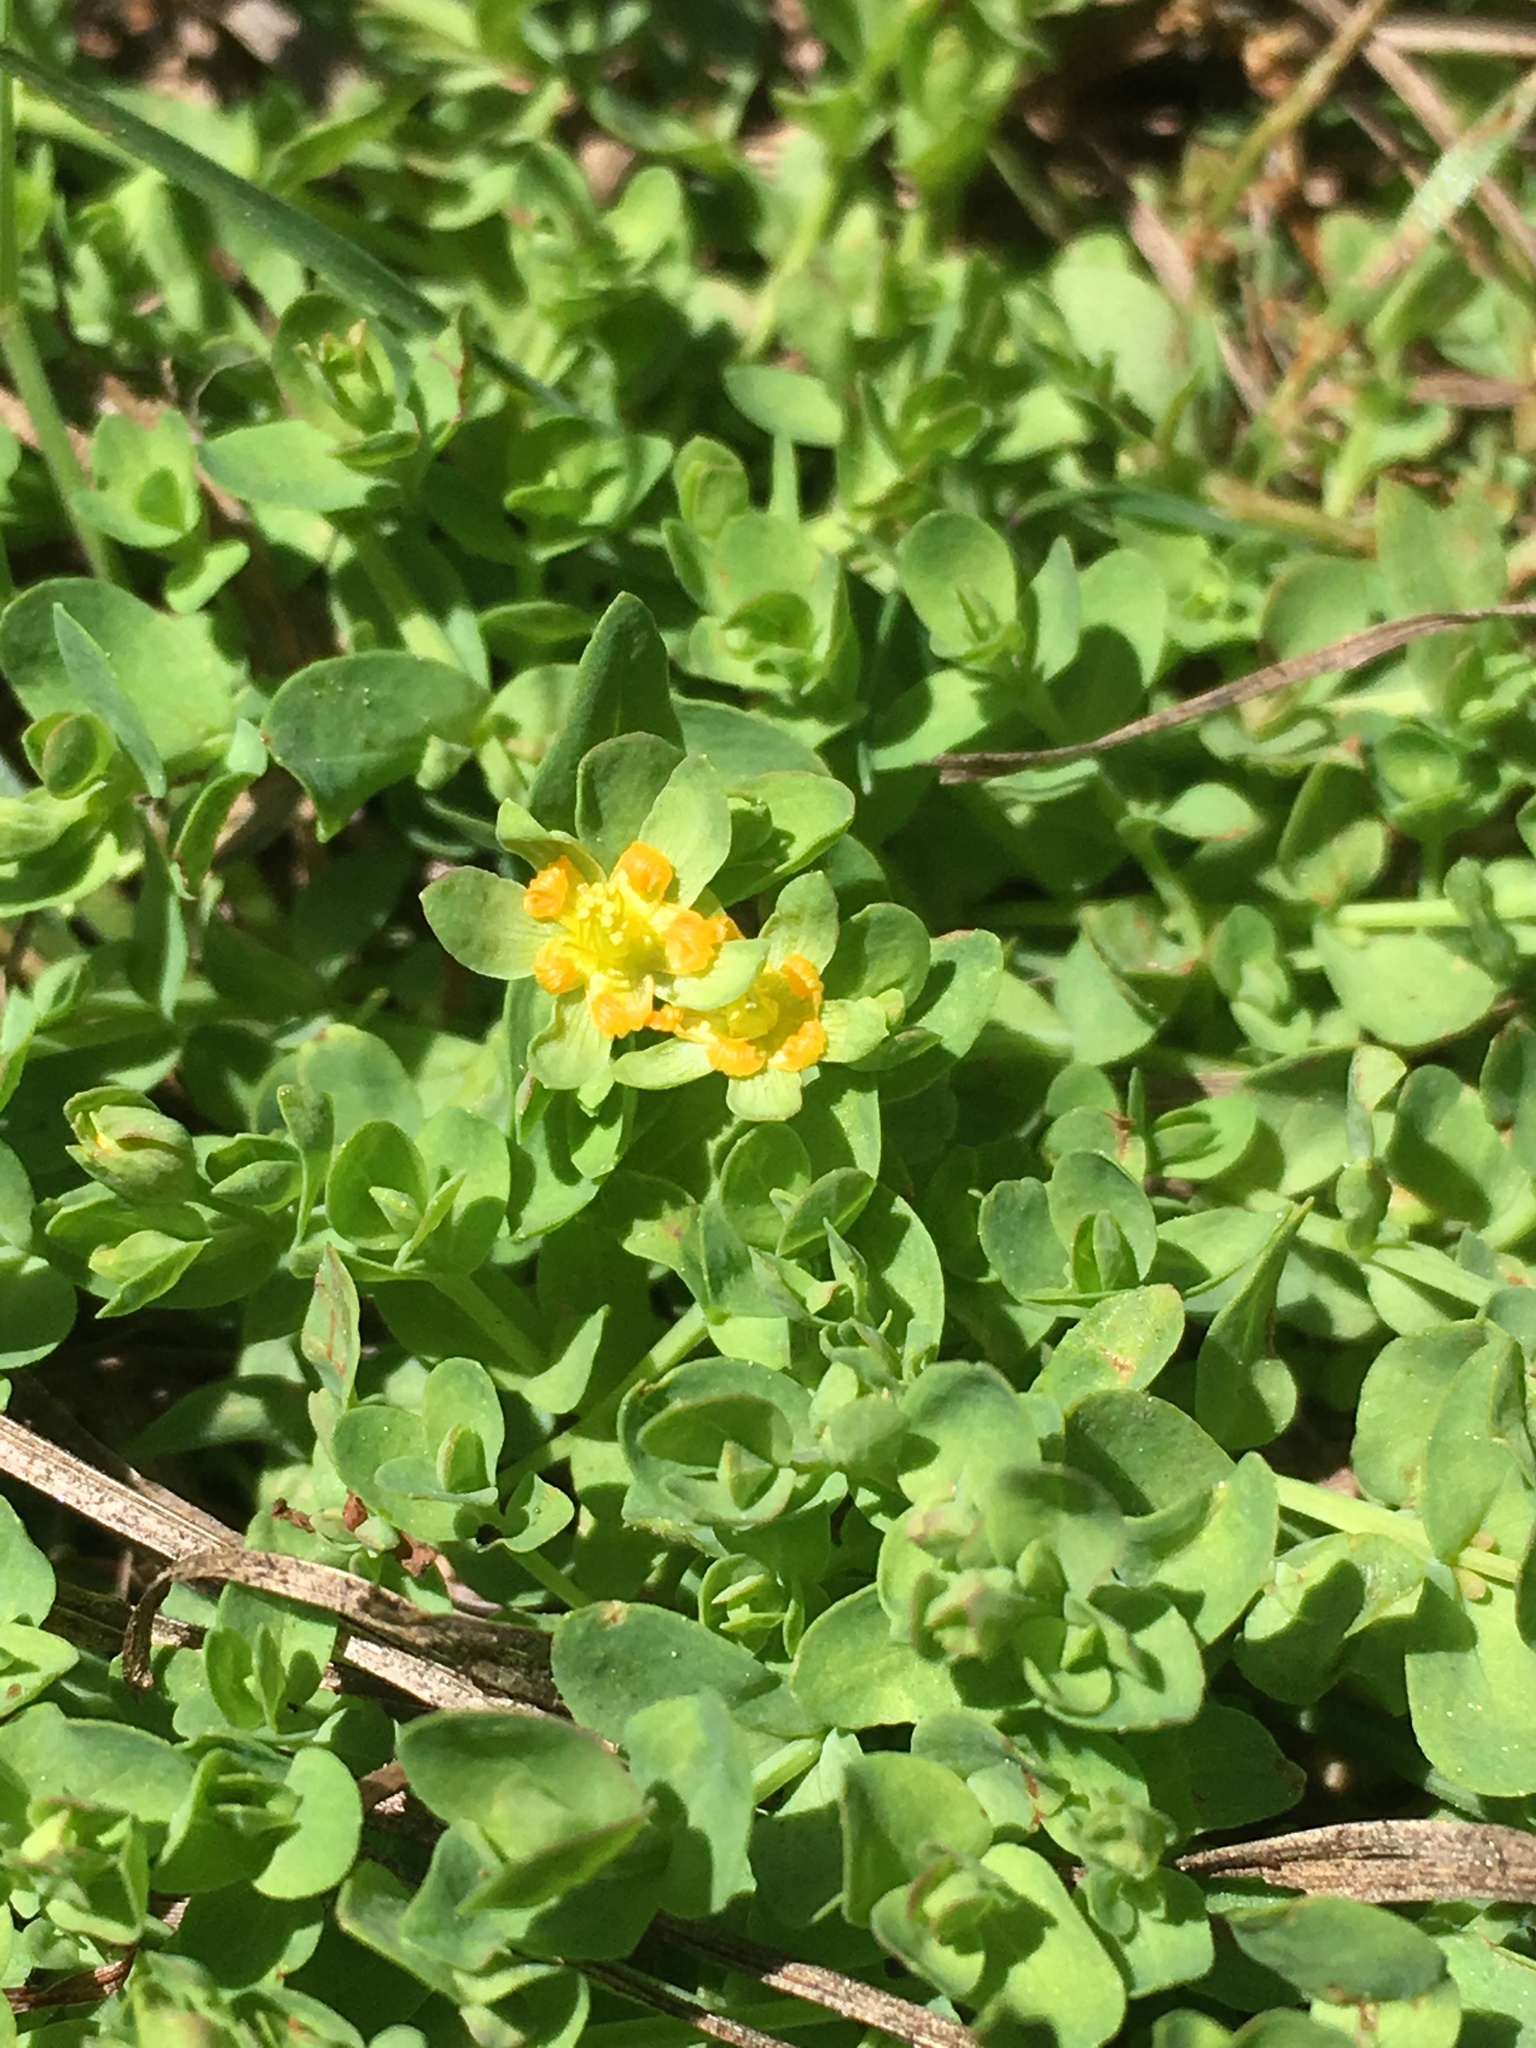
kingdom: Plantae
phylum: Tracheophyta
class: Magnoliopsida
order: Malpighiales
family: Hypericaceae
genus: Hypericum
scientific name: Hypericum anagalloides
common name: Bog st. john's-wort
